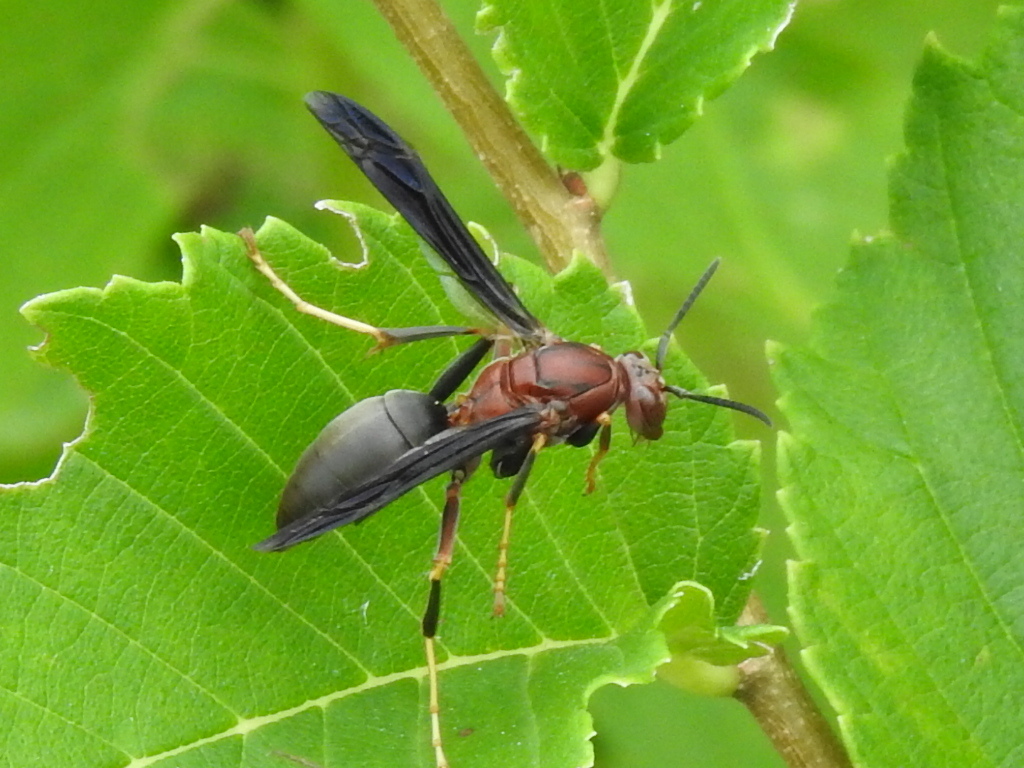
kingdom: Animalia
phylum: Arthropoda
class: Insecta
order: Hymenoptera
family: Eumenidae
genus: Polistes
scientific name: Polistes metricus
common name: Metric paper wasp
